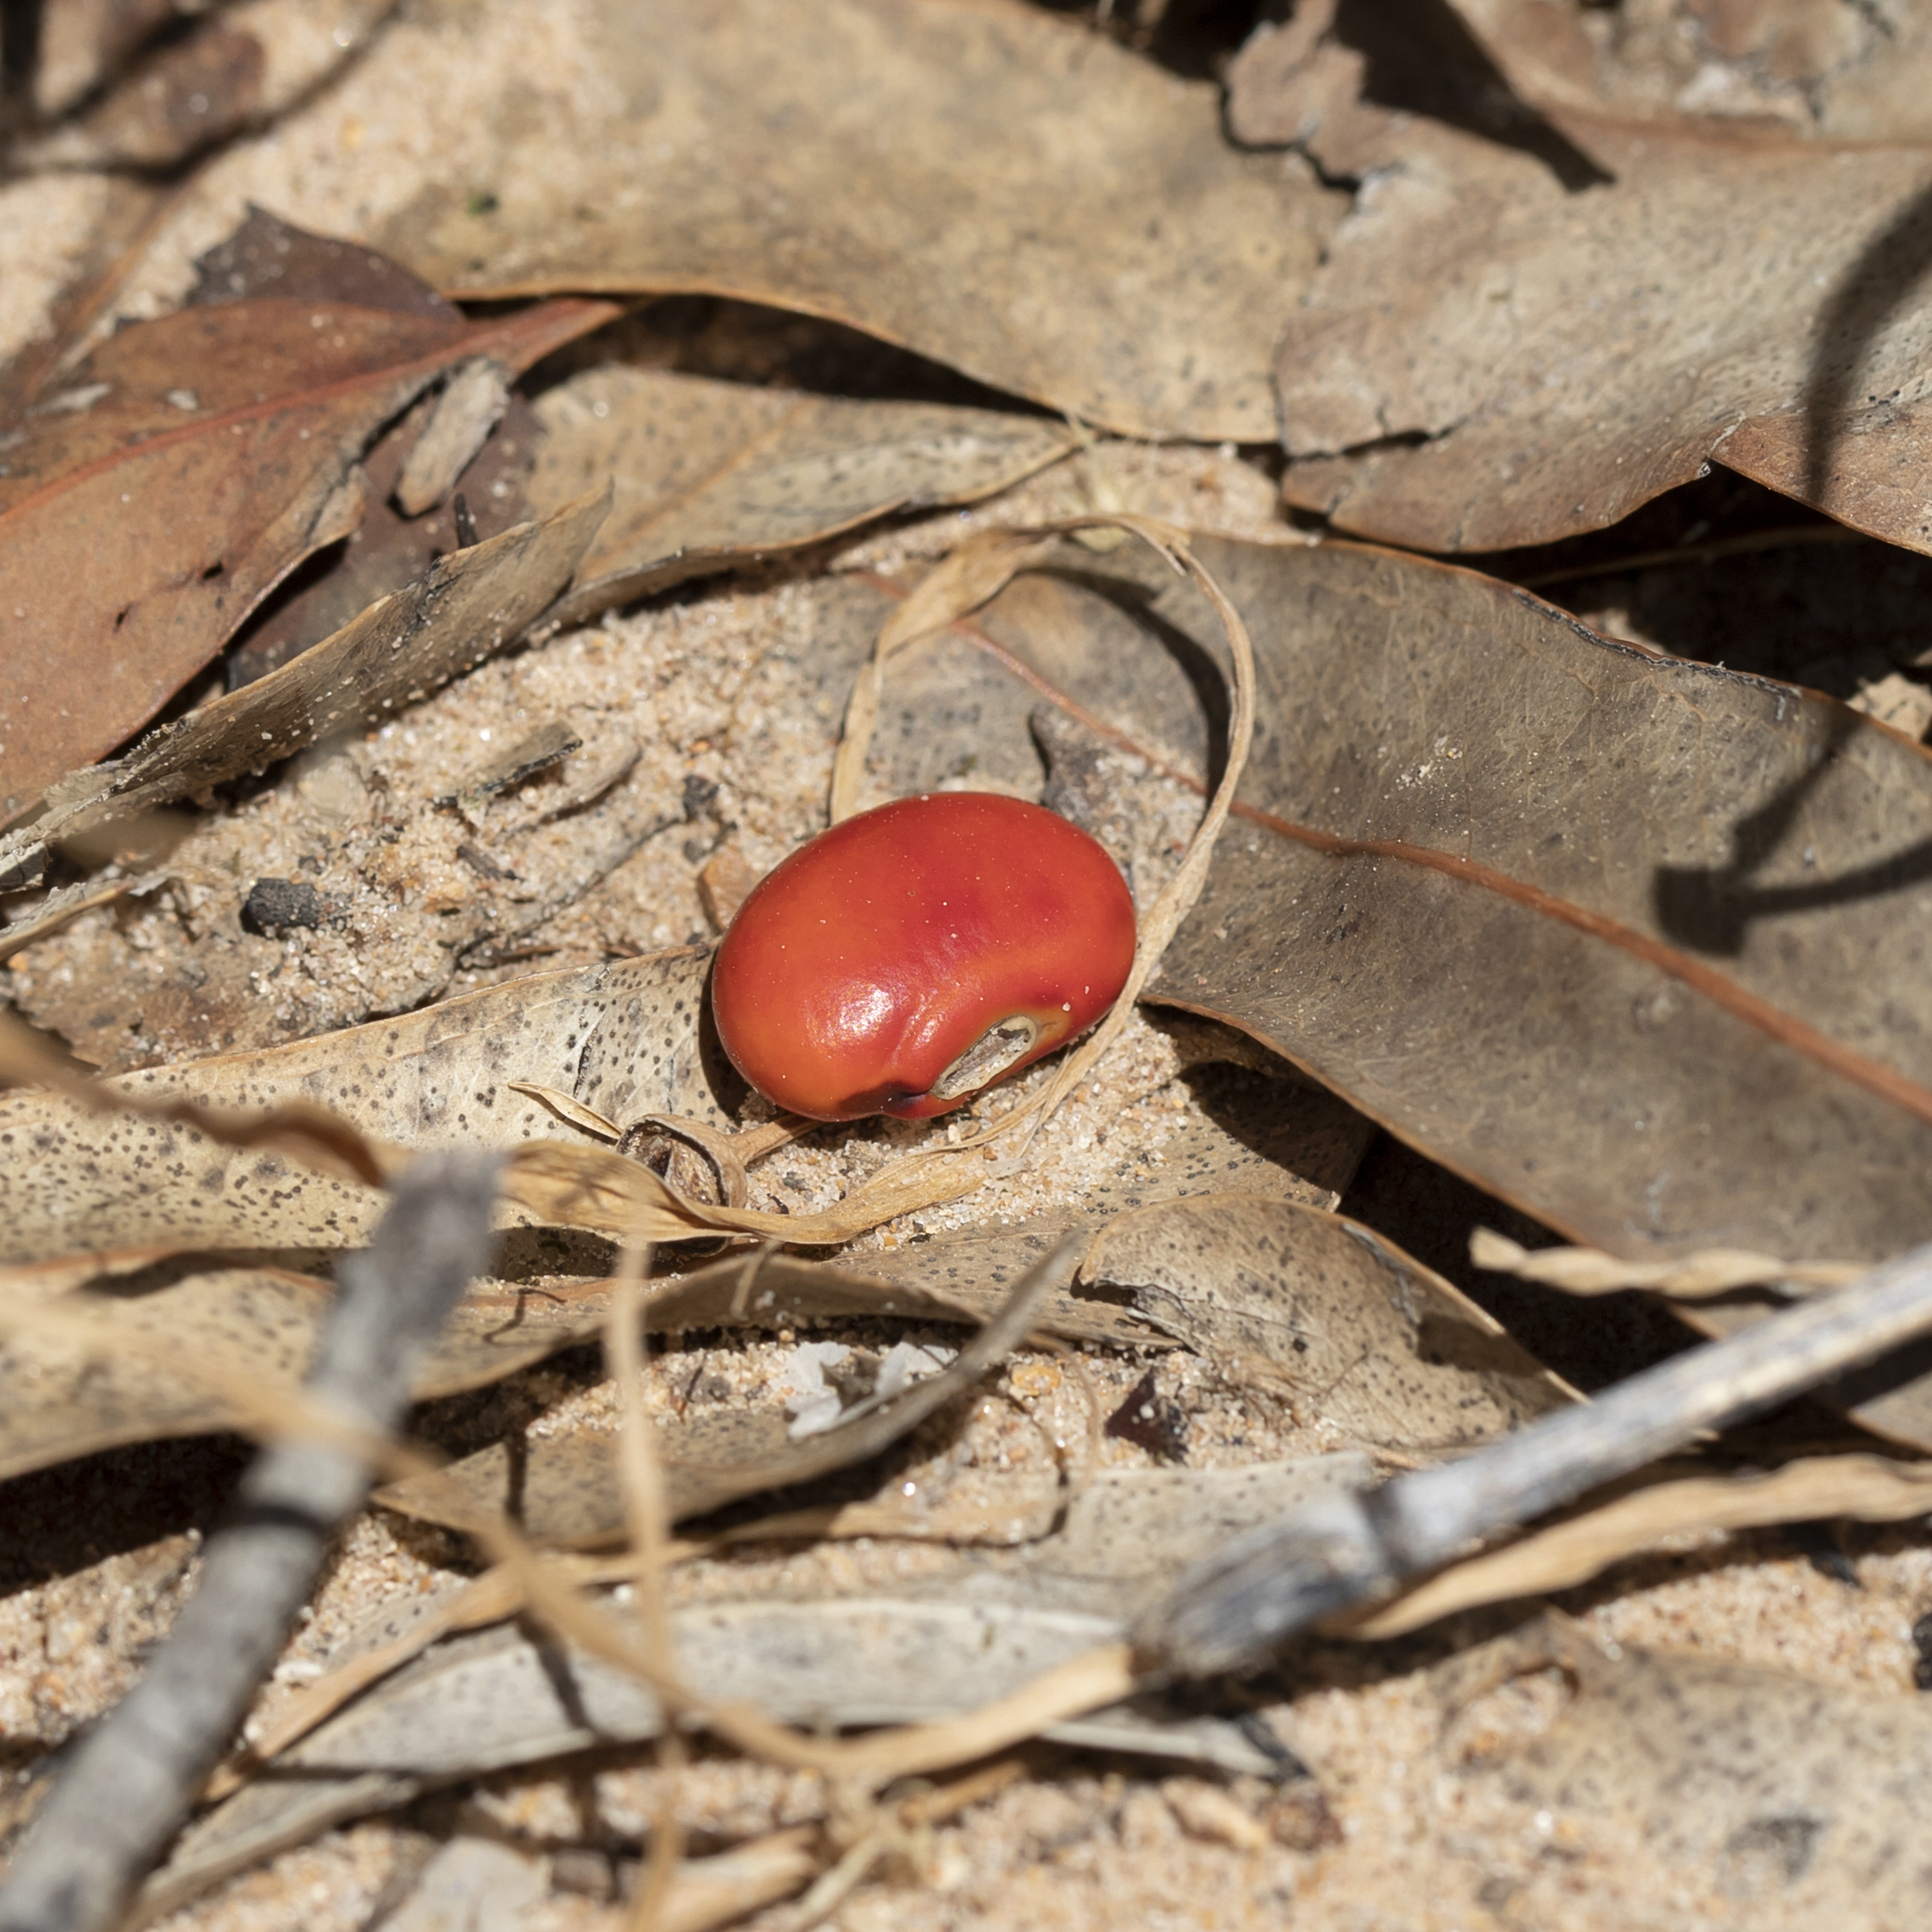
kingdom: Plantae
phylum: Tracheophyta
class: Magnoliopsida
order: Fabales
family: Fabaceae
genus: Erythrina
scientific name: Erythrina vespertilio
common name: Bat-wing coral tree
